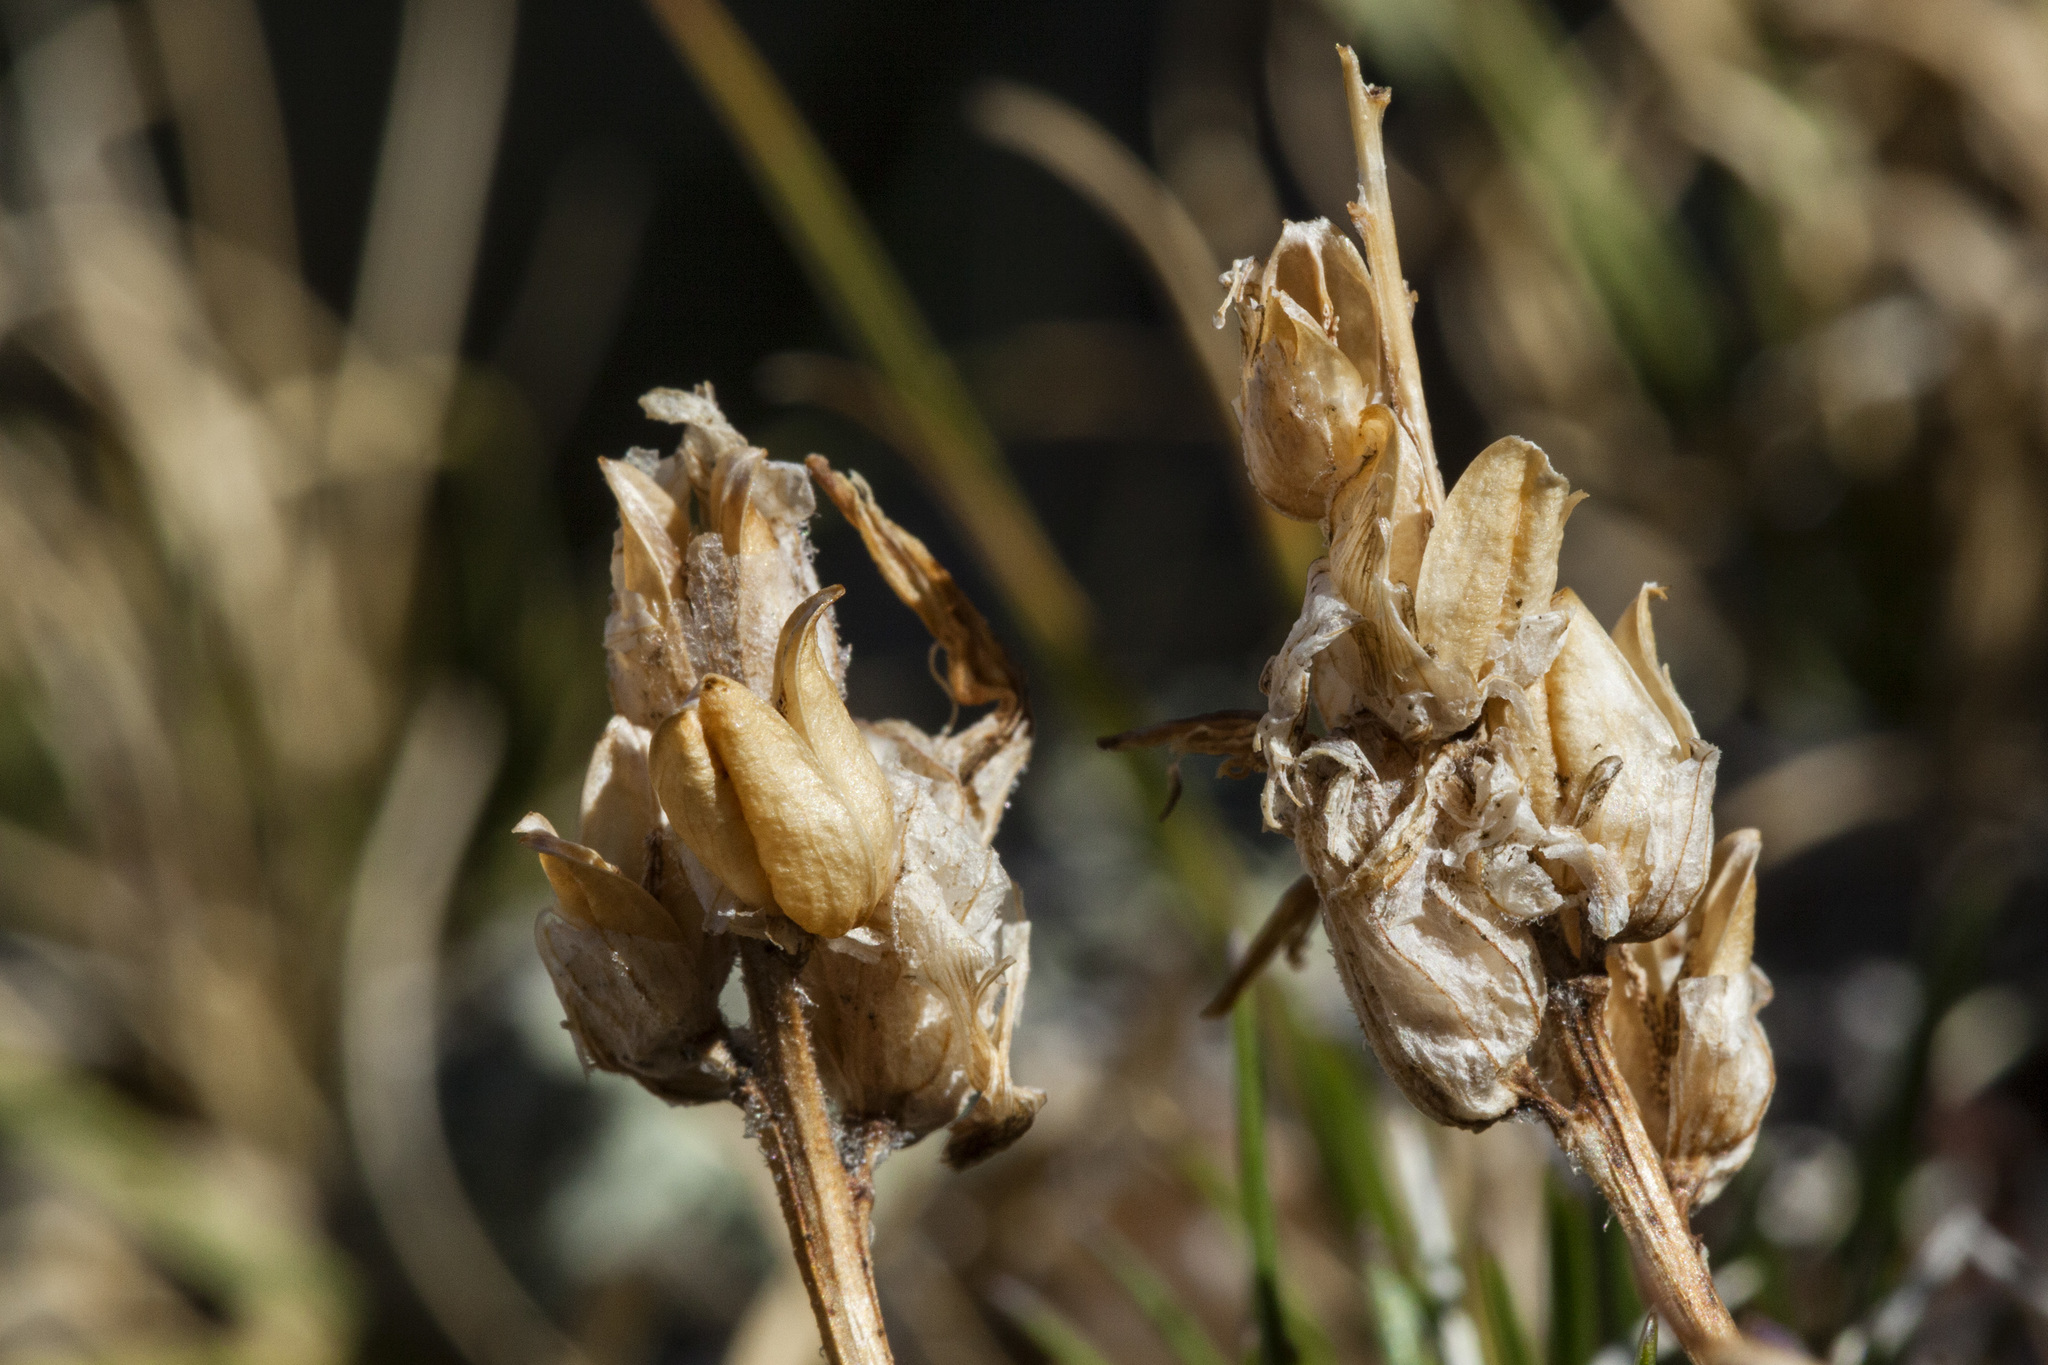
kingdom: Plantae
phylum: Tracheophyta
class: Magnoliopsida
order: Lamiales
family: Orobanchaceae
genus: Castilleja
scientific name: Castilleja haydenii
